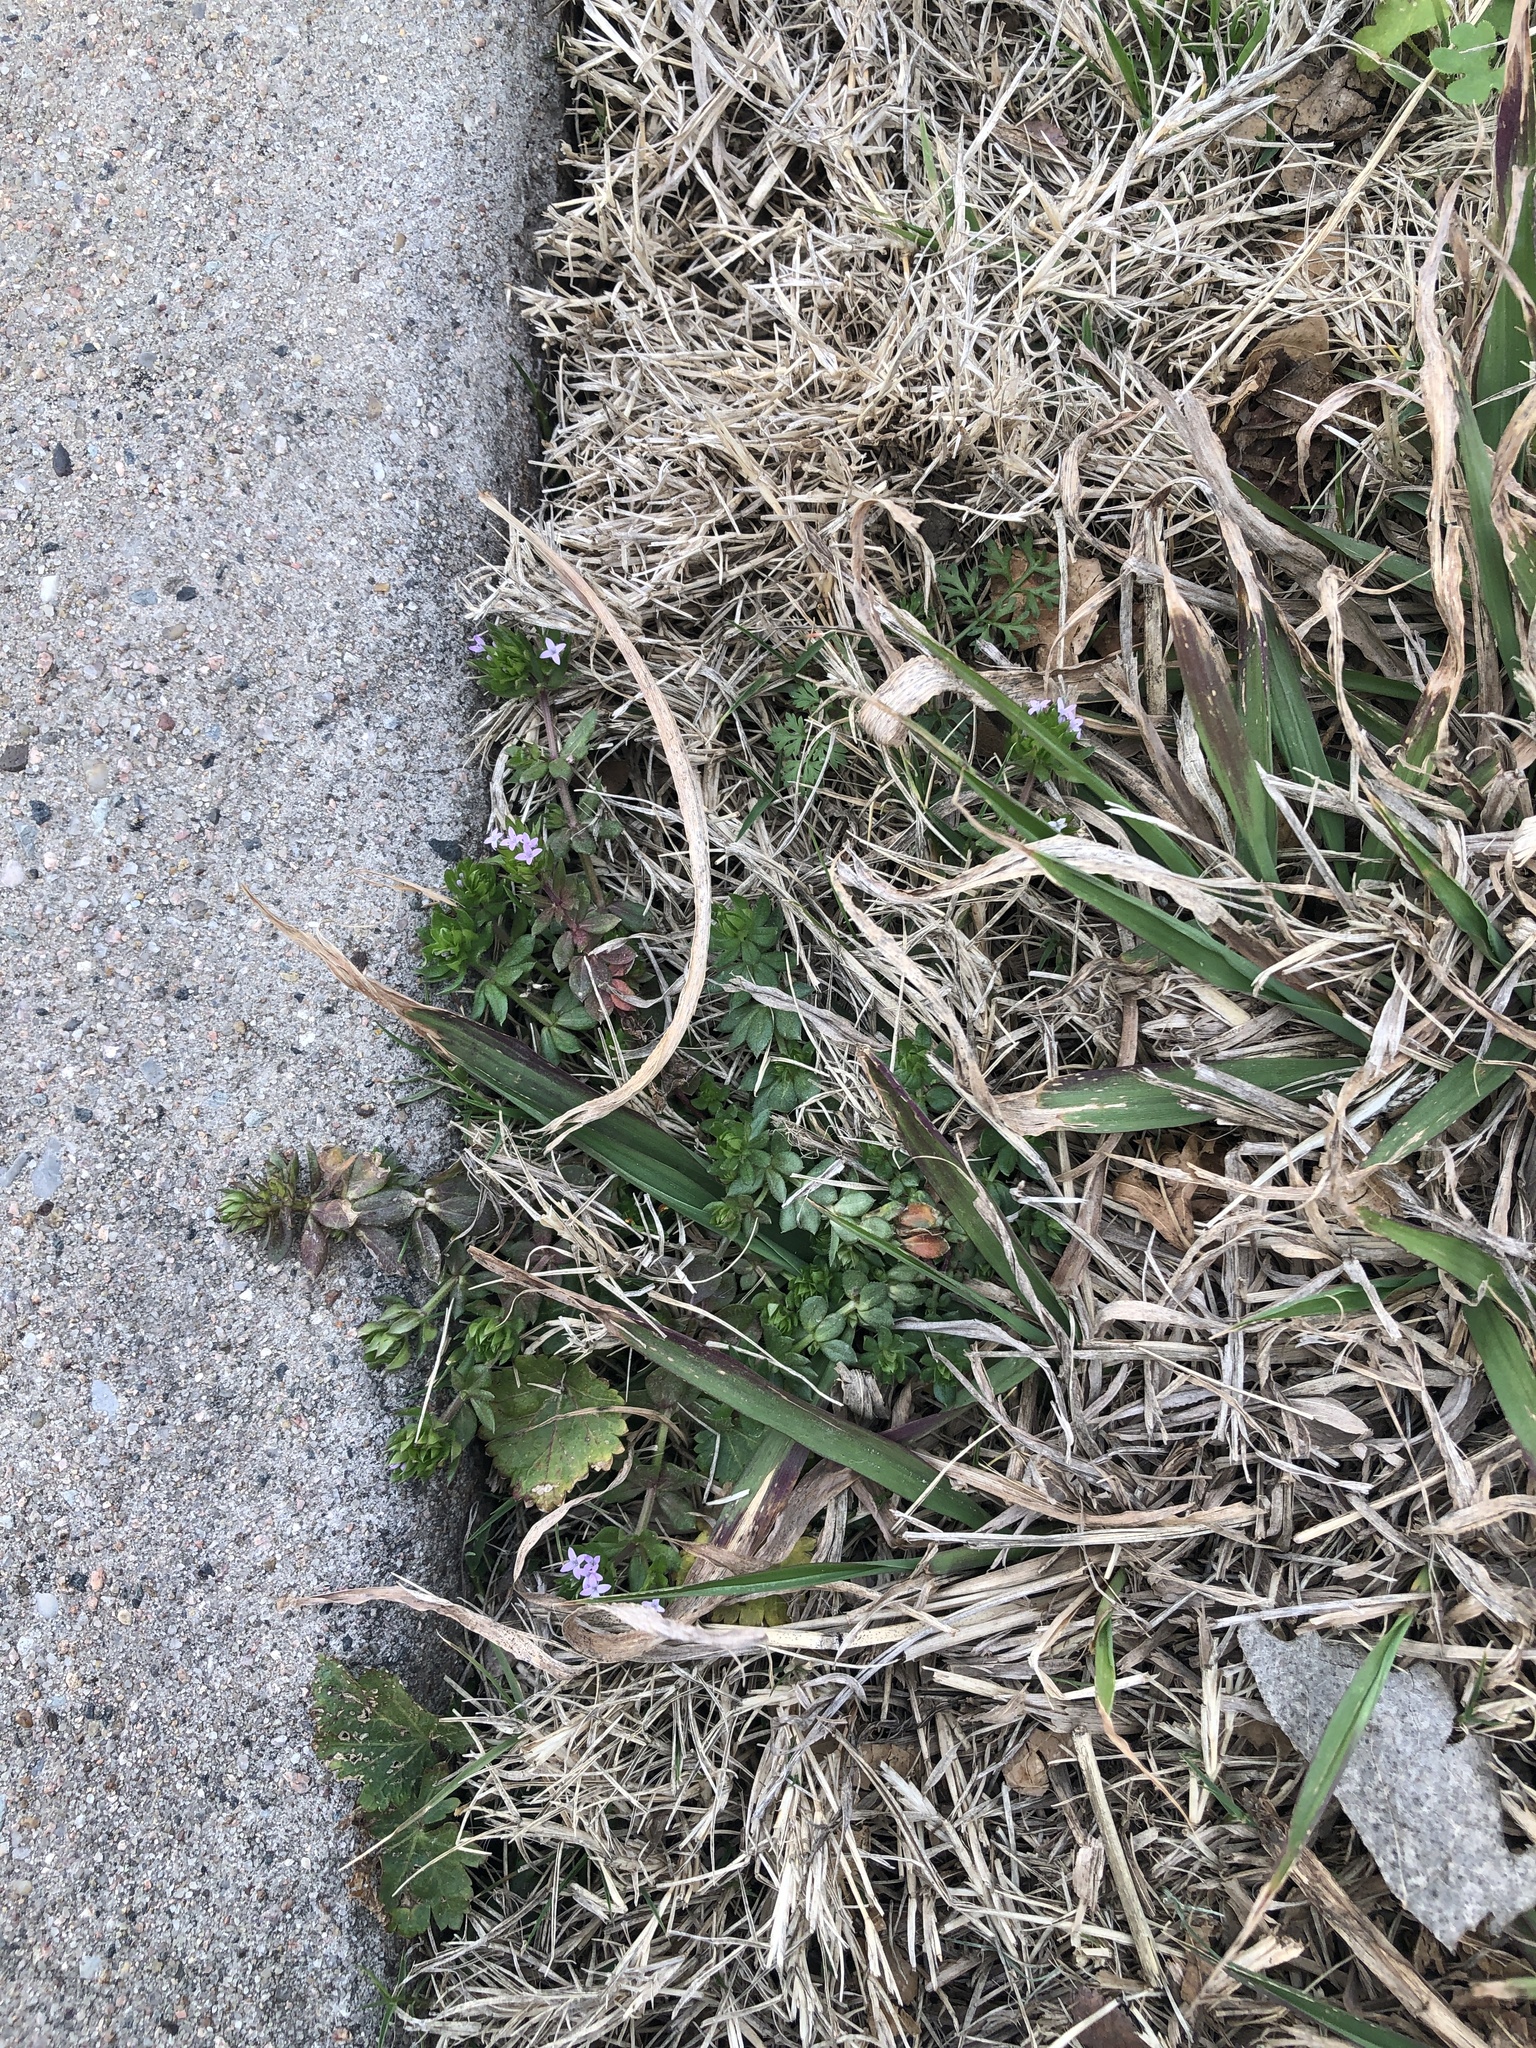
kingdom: Plantae
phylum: Tracheophyta
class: Magnoliopsida
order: Gentianales
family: Rubiaceae
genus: Sherardia
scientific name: Sherardia arvensis
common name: Field madder
